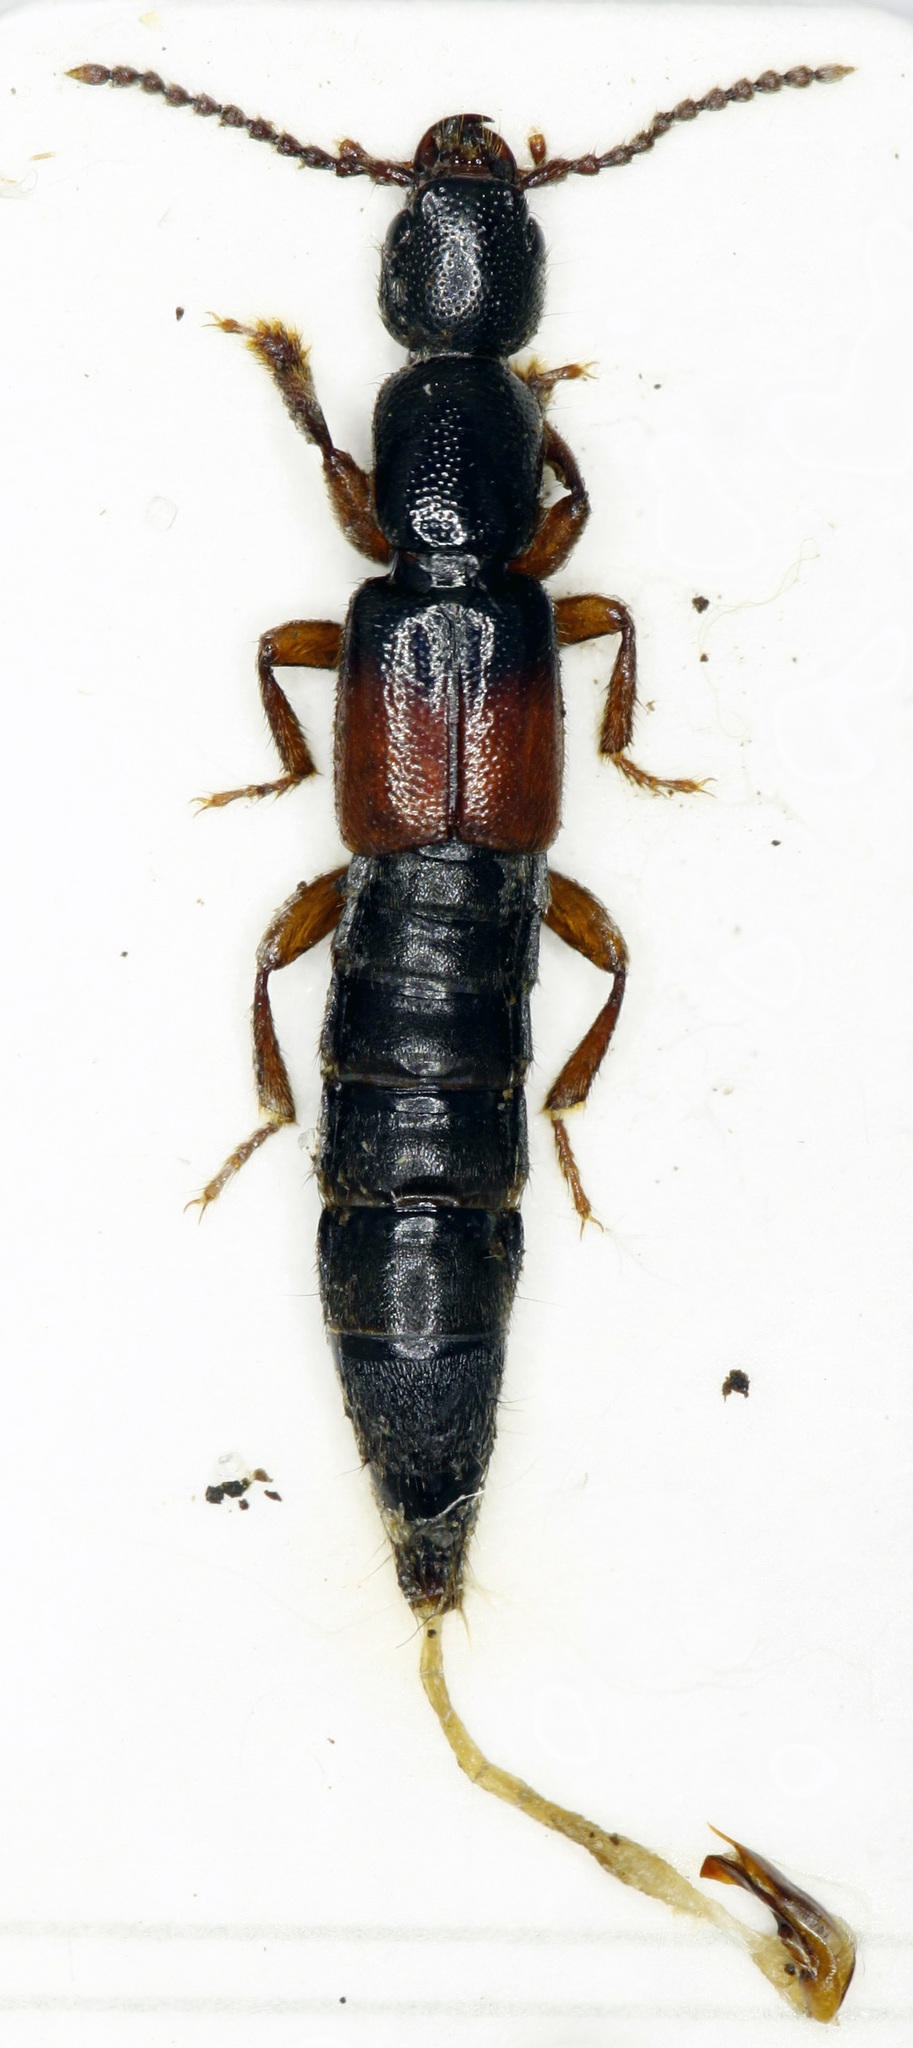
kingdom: Animalia
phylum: Arthropoda
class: Insecta
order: Coleoptera
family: Staphylinidae
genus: Lathrobium
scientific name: Lathrobium elongatum
